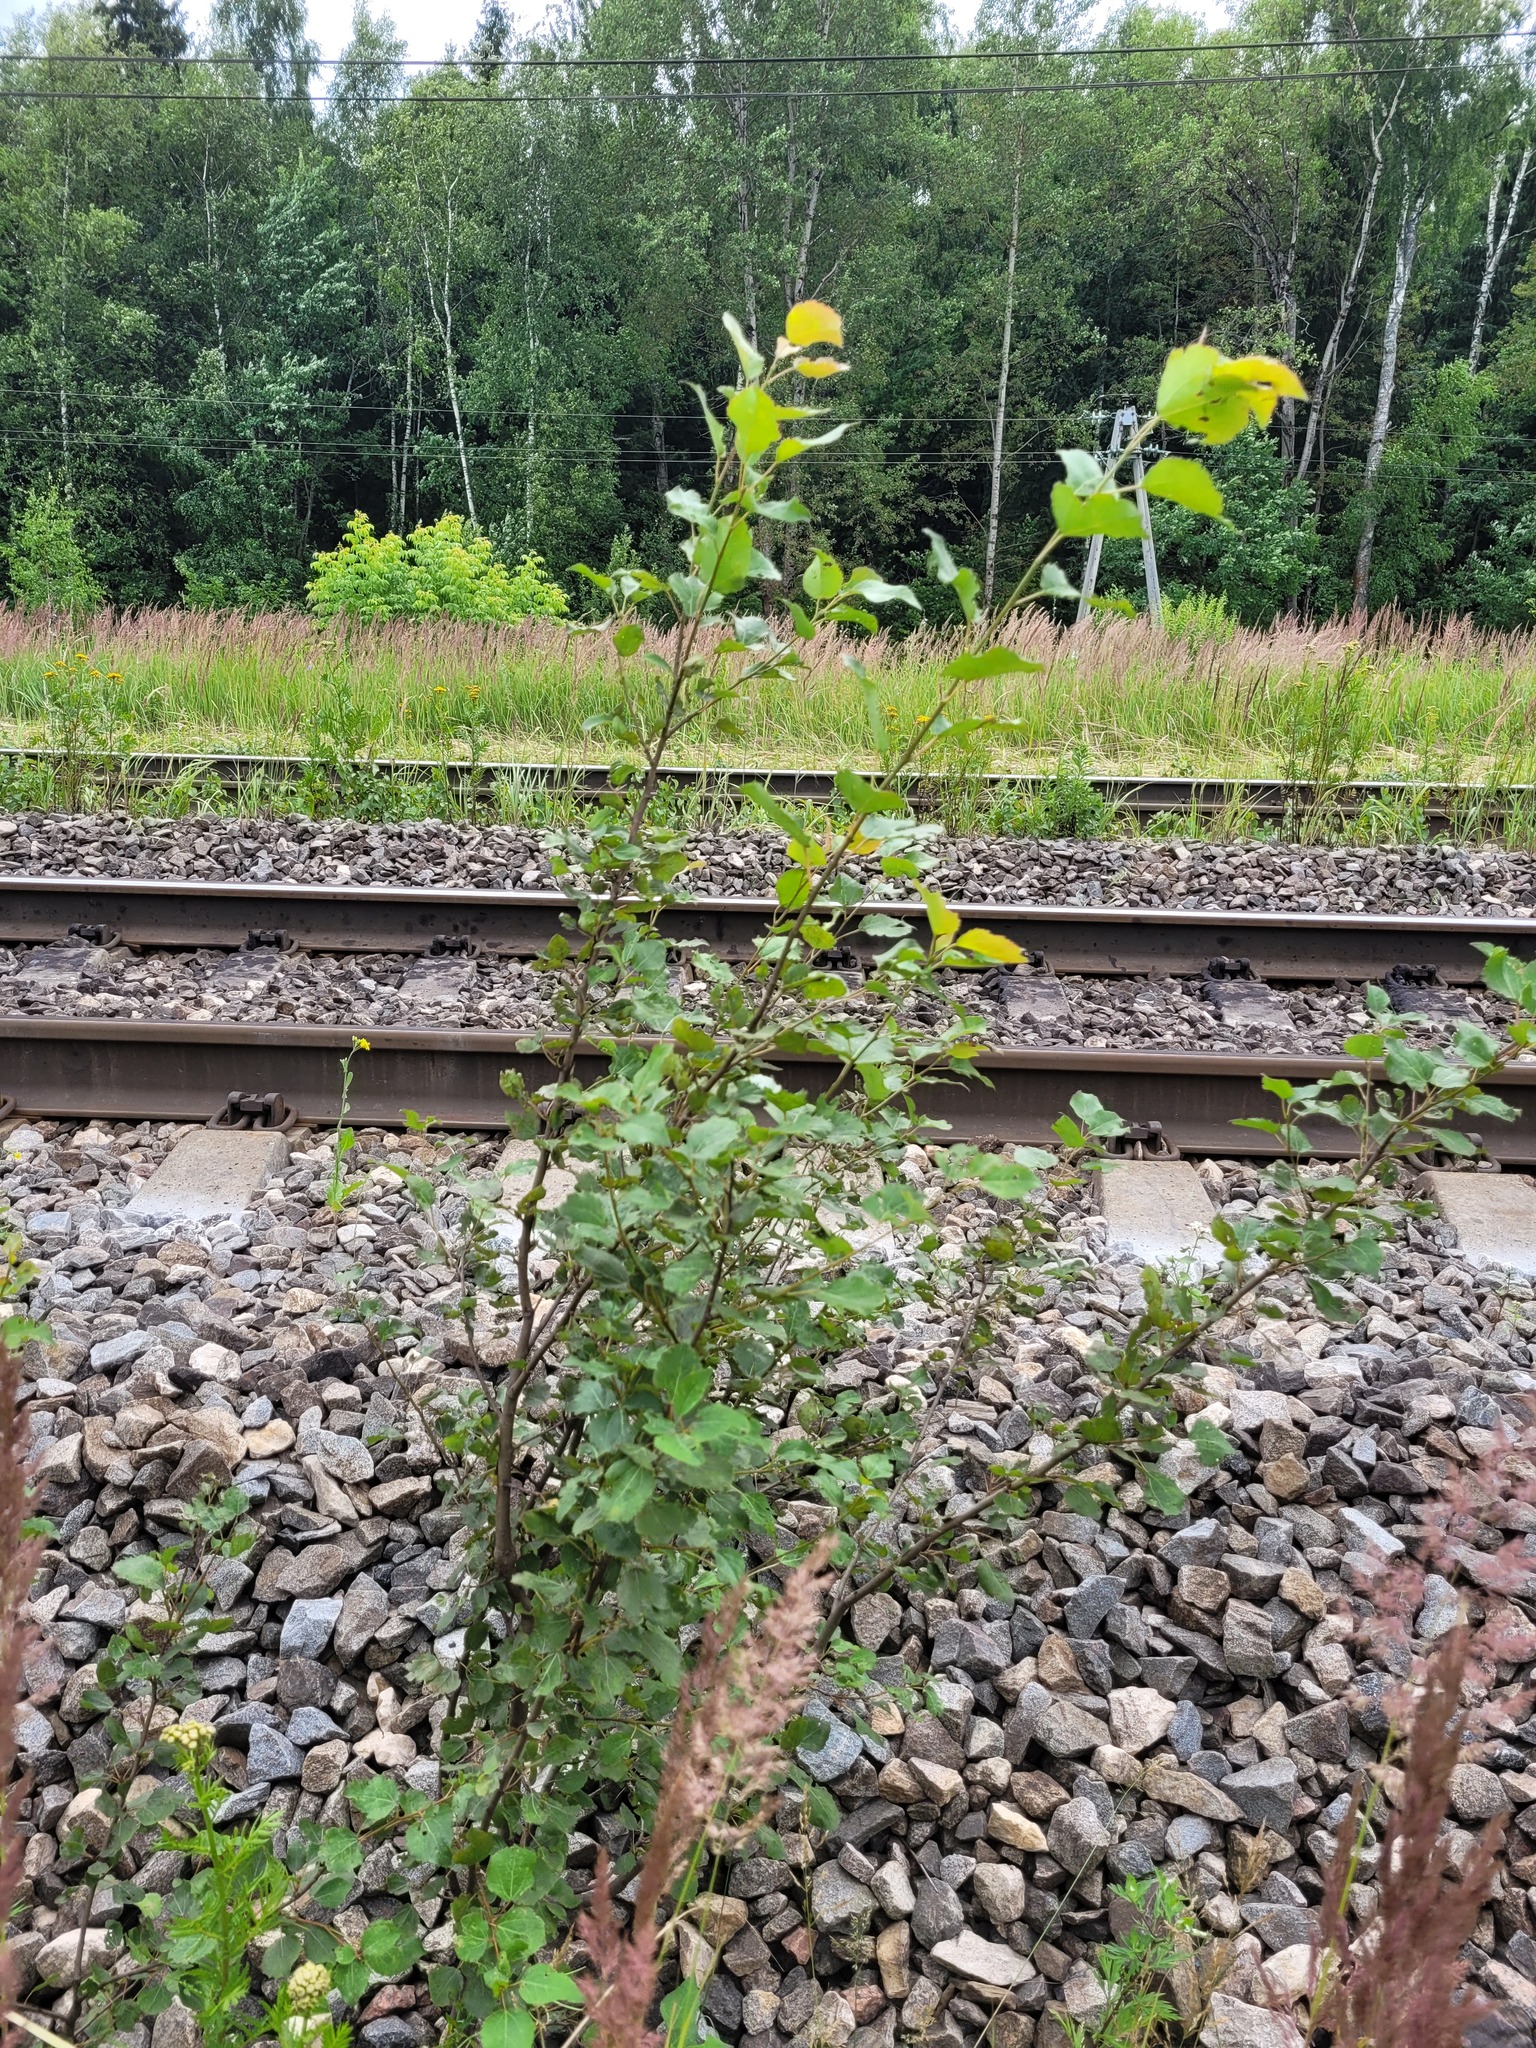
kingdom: Plantae
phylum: Tracheophyta
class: Magnoliopsida
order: Malpighiales
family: Salicaceae
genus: Populus
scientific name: Populus tremula
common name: European aspen
